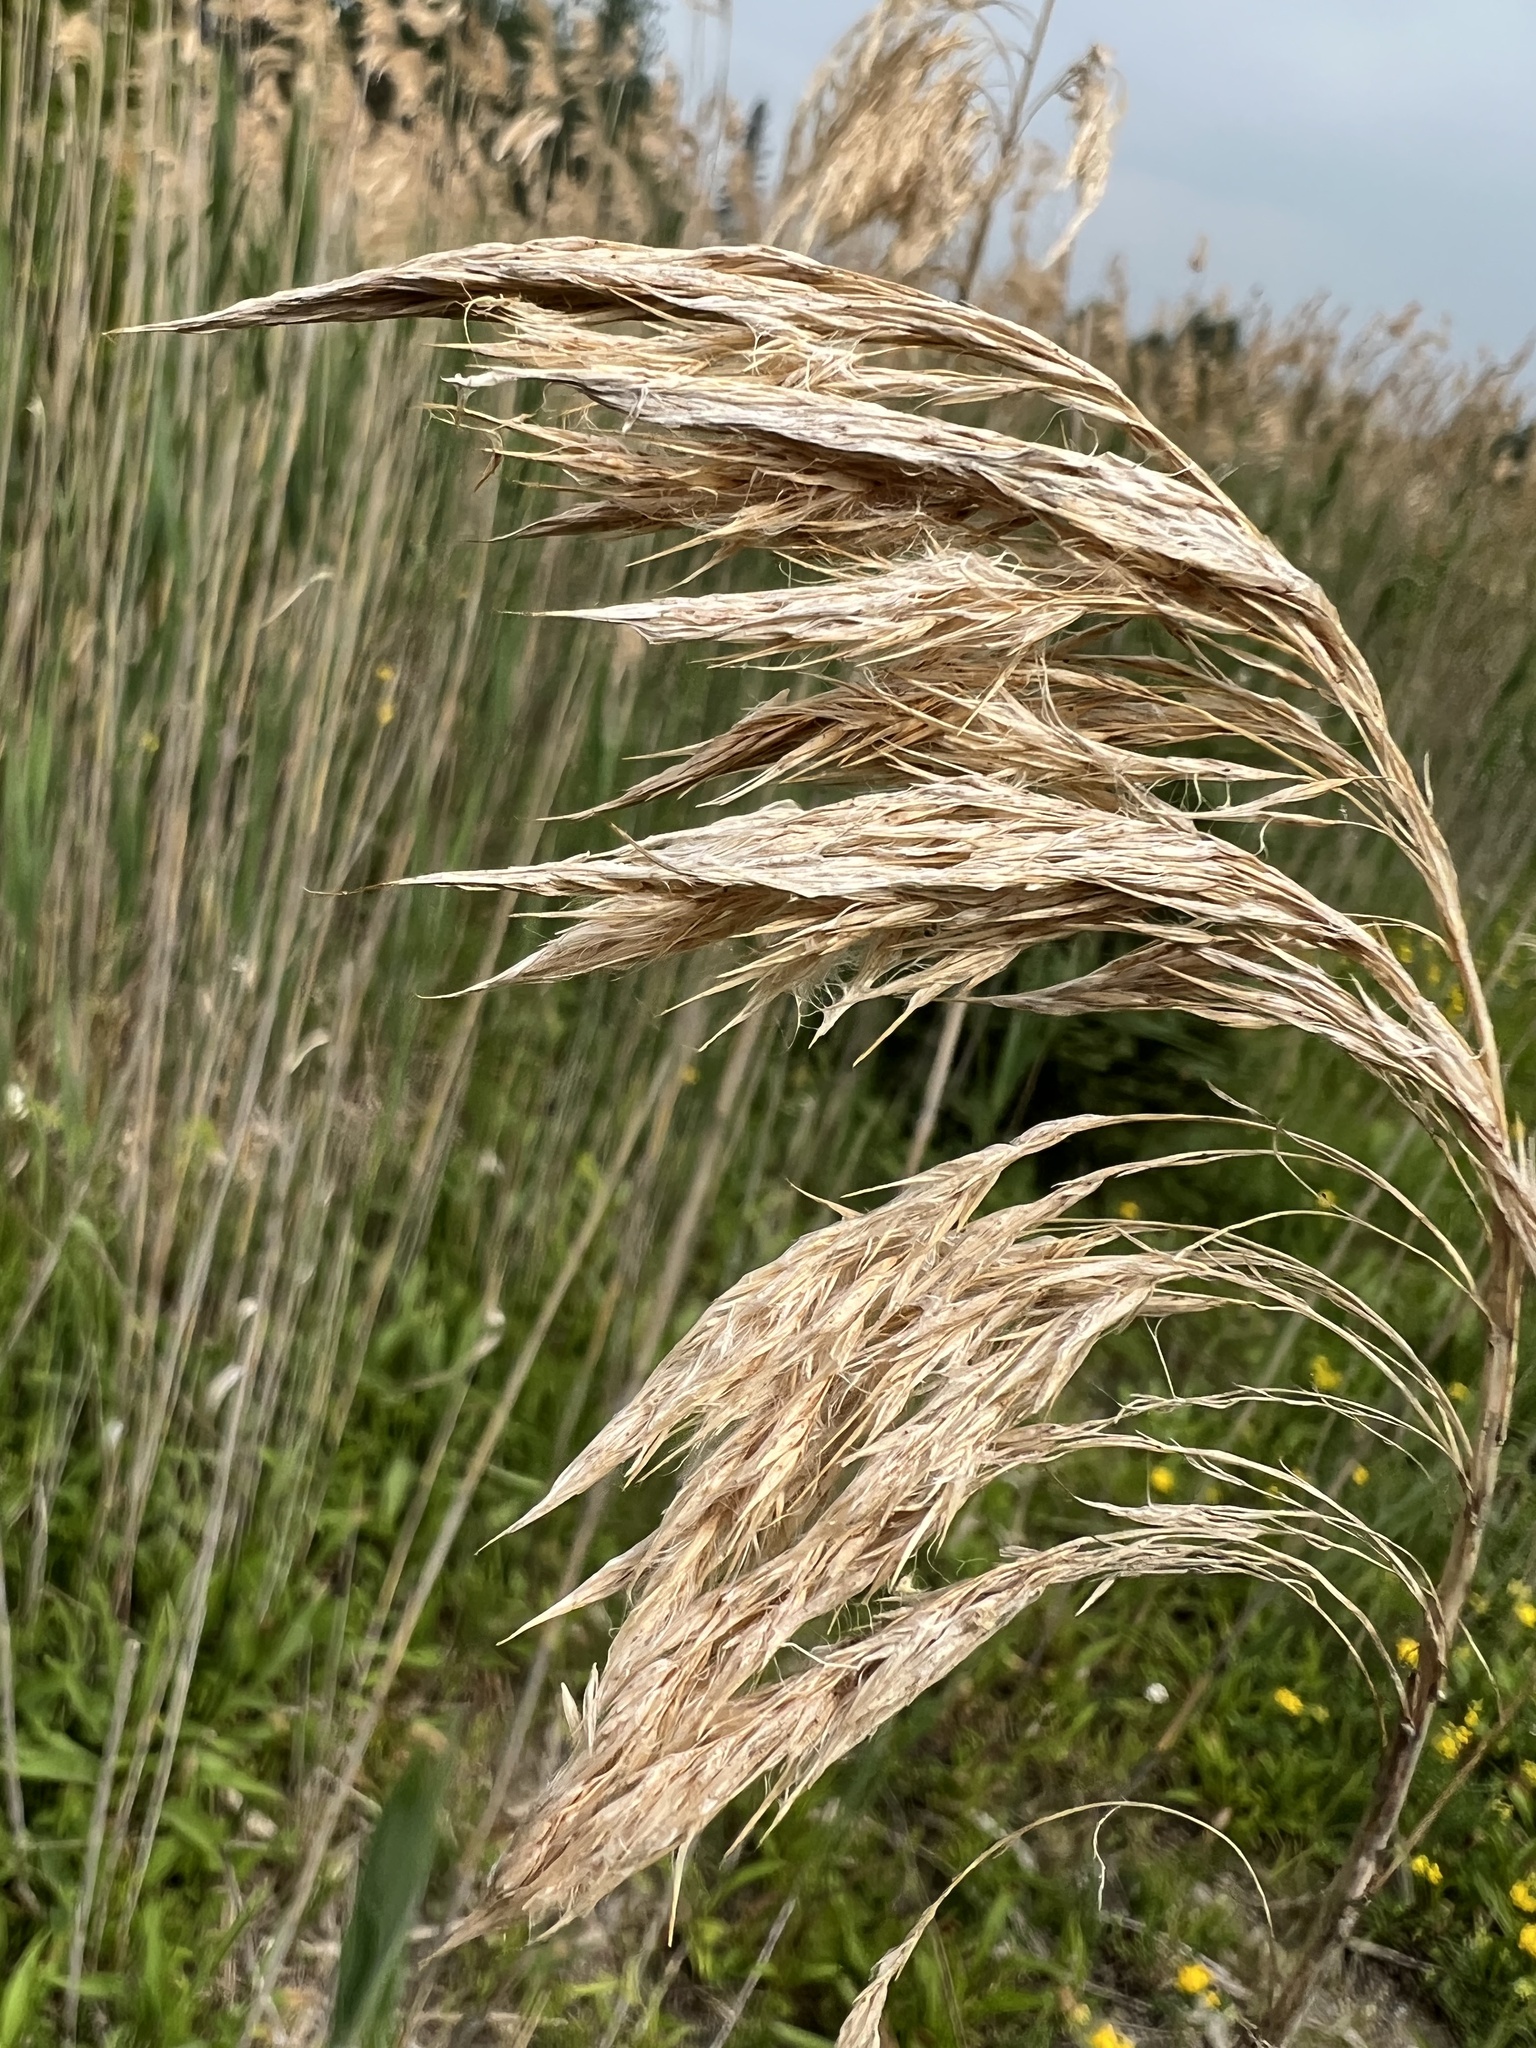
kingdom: Plantae
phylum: Tracheophyta
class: Liliopsida
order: Poales
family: Poaceae
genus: Phragmites
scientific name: Phragmites australis
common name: Common reed
